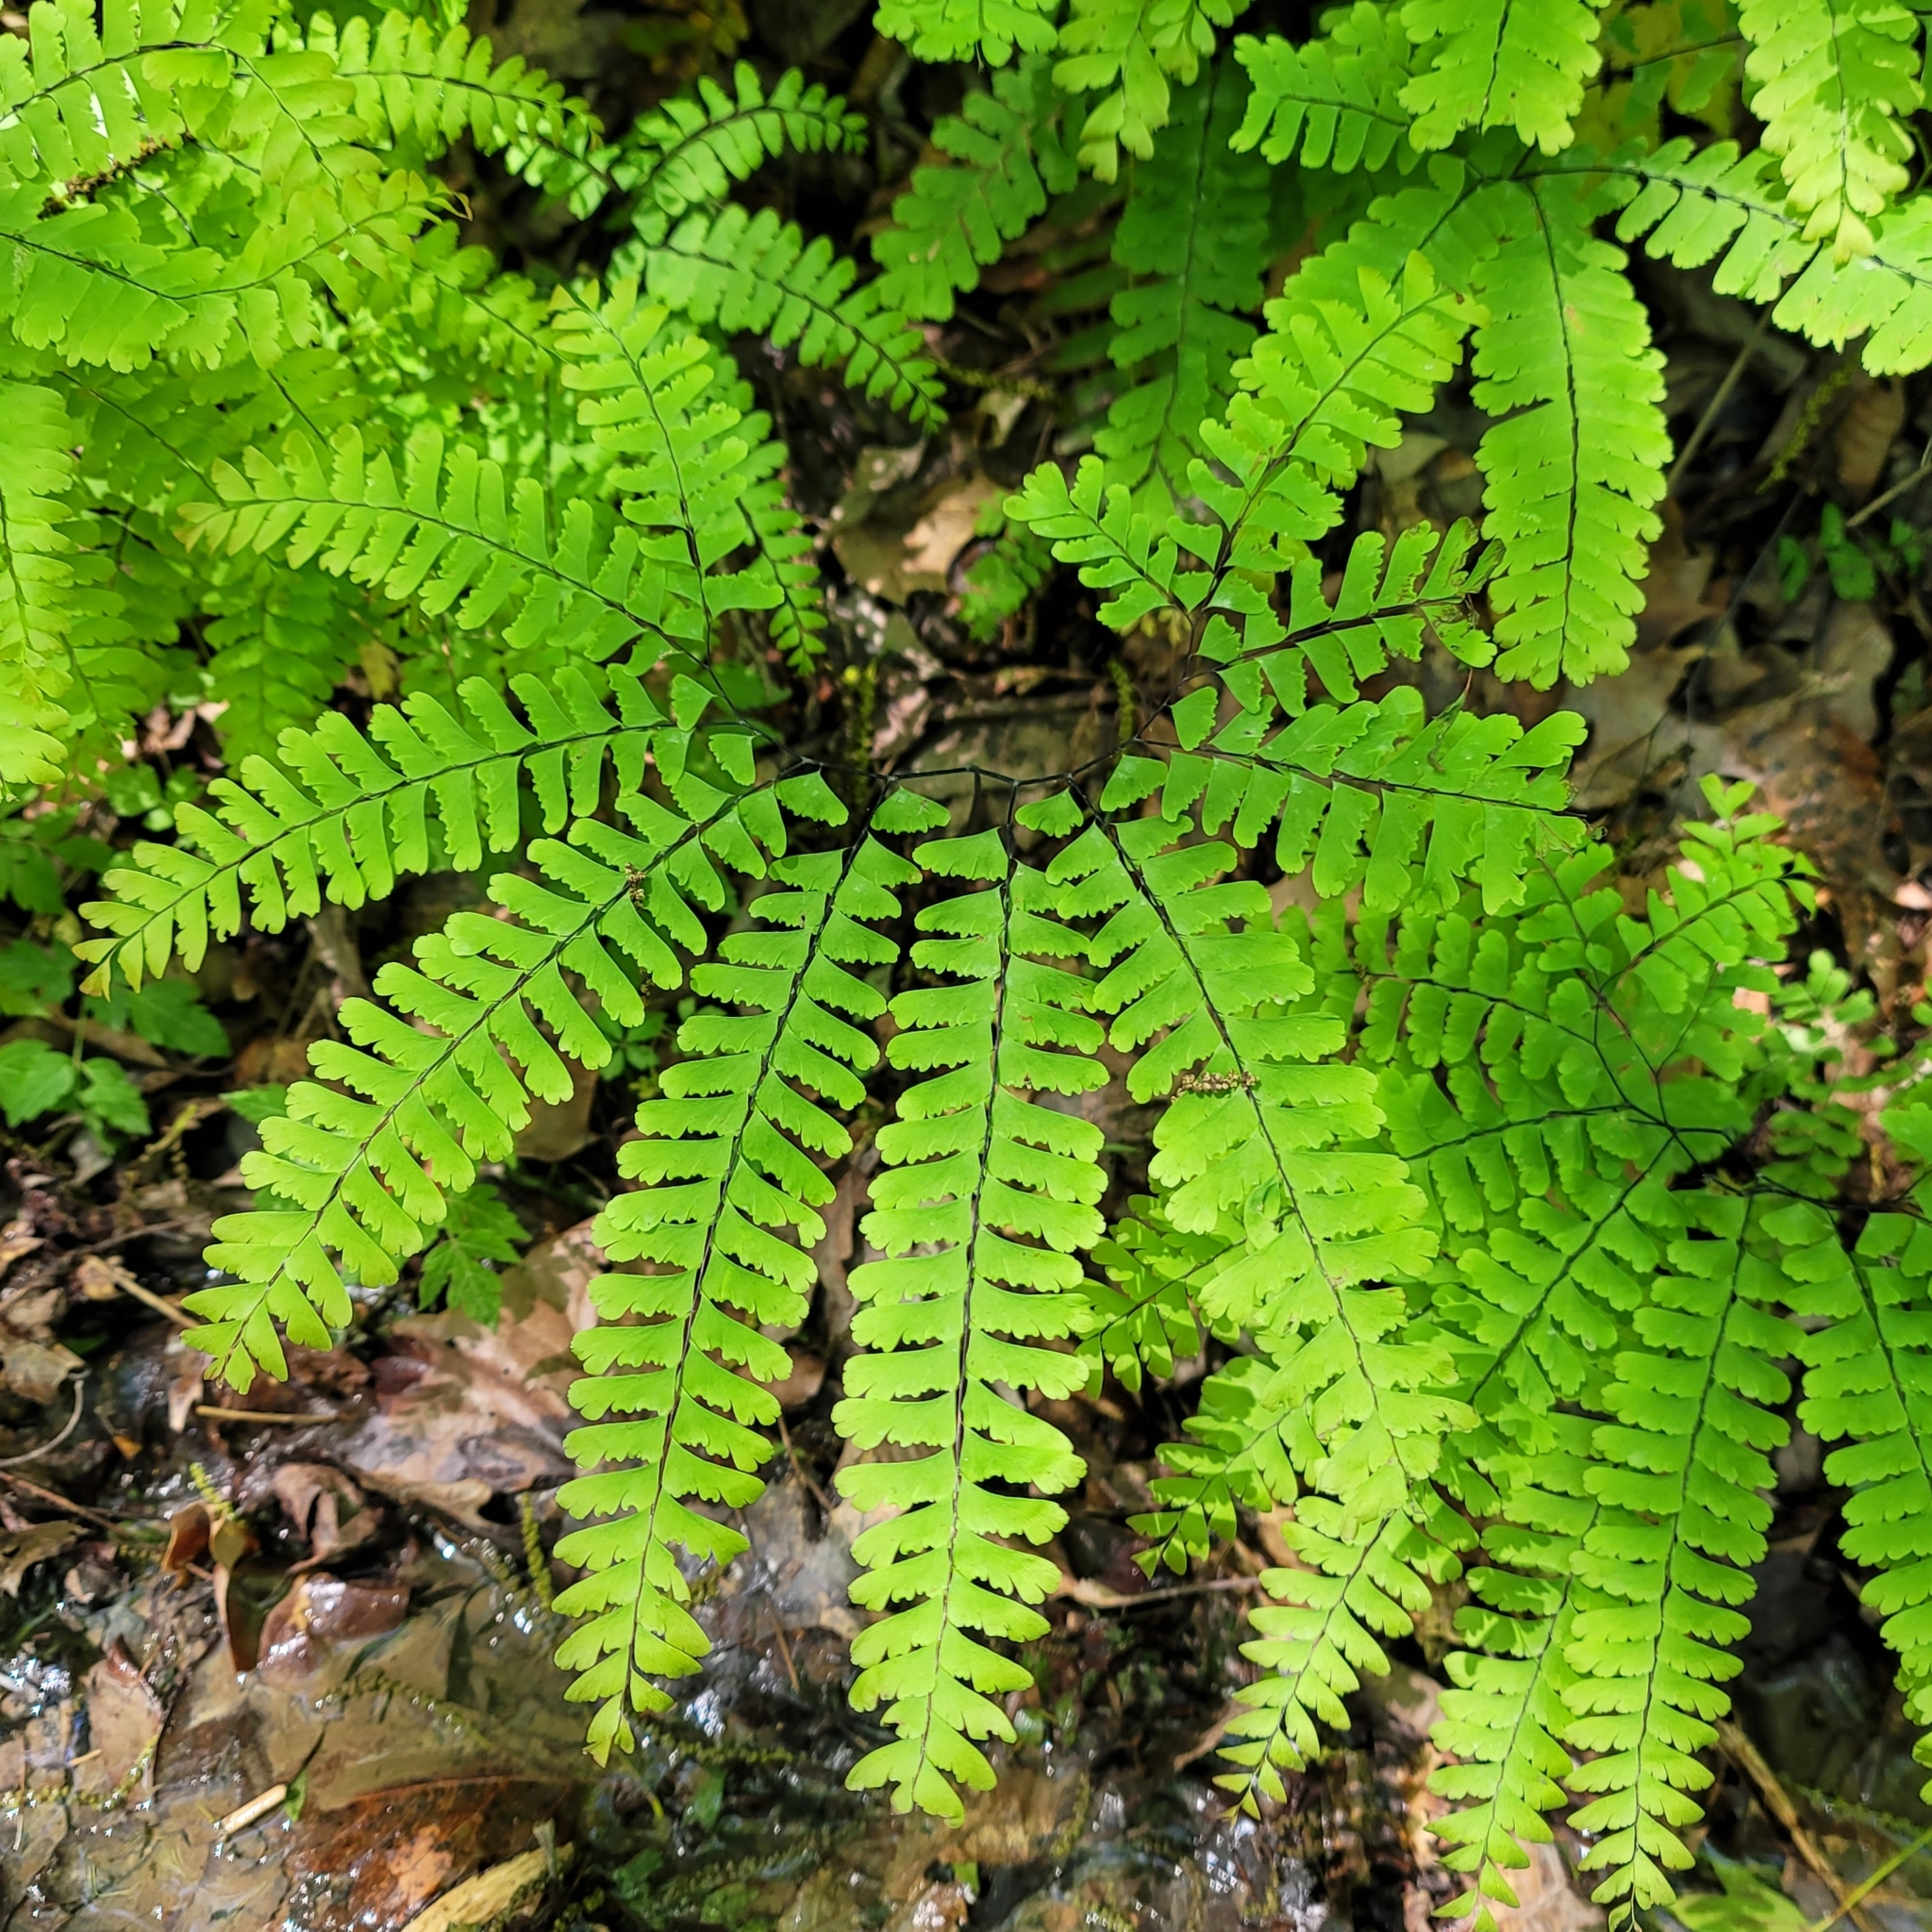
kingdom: Plantae
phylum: Tracheophyta
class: Polypodiopsida
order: Polypodiales
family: Pteridaceae
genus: Adiantum
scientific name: Adiantum pedatum
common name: Five-finger fern
